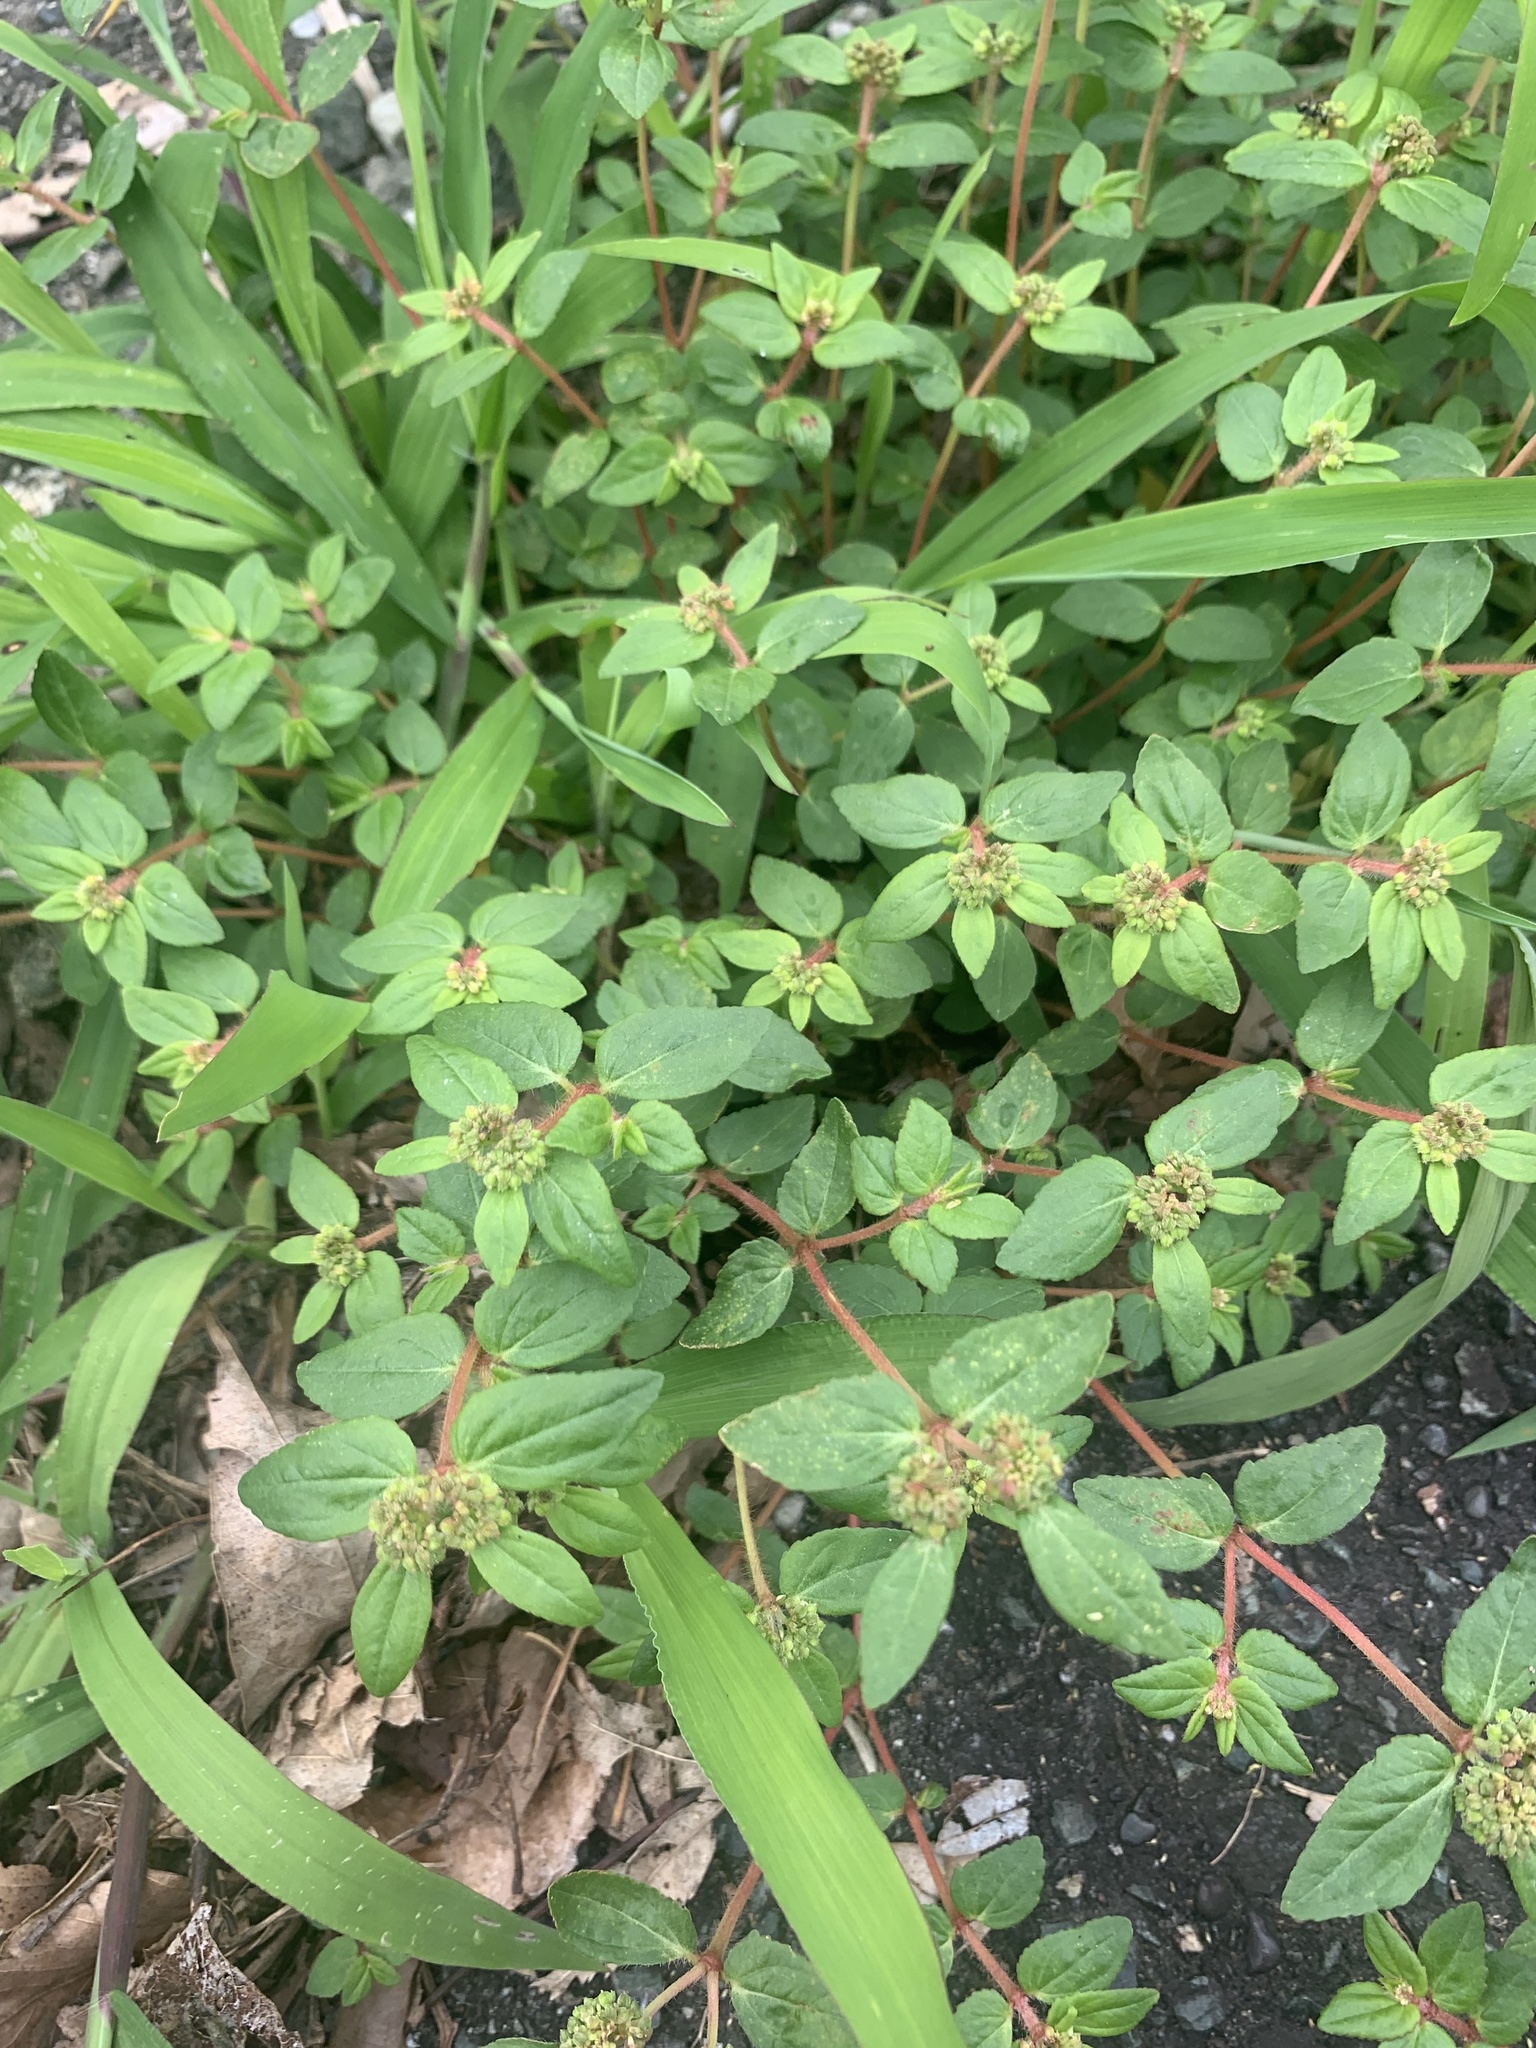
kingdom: Plantae
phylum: Tracheophyta
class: Magnoliopsida
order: Malpighiales
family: Euphorbiaceae
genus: Euphorbia
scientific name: Euphorbia ophthalmica
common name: Florida hammock sandmat
